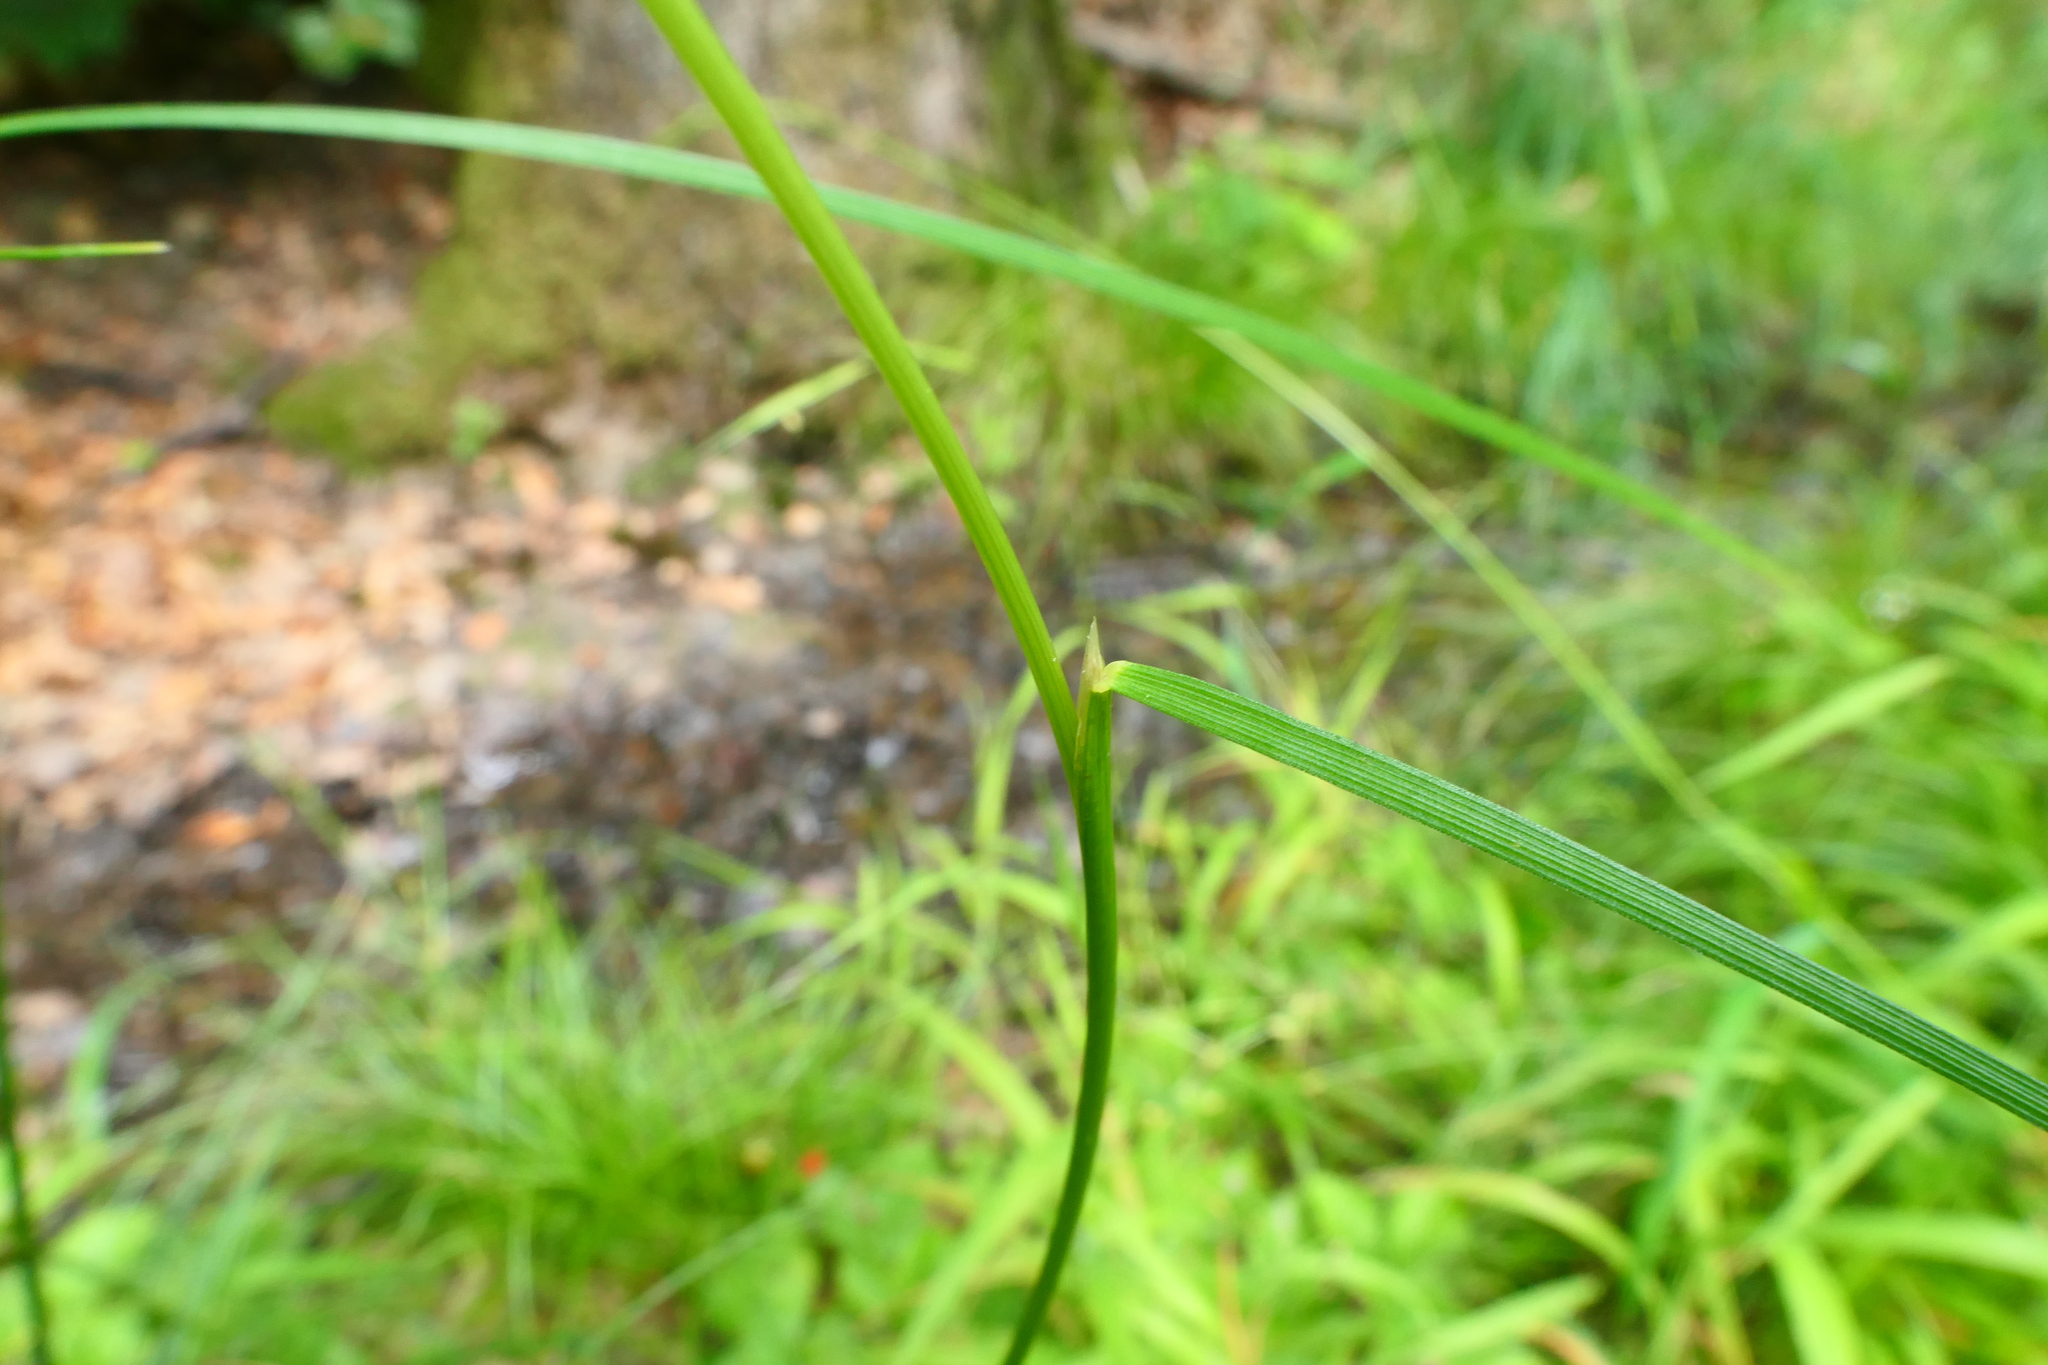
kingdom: Plantae
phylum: Tracheophyta
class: Liliopsida
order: Poales
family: Poaceae
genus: Deschampsia
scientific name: Deschampsia cespitosa
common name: Tufted hair-grass
